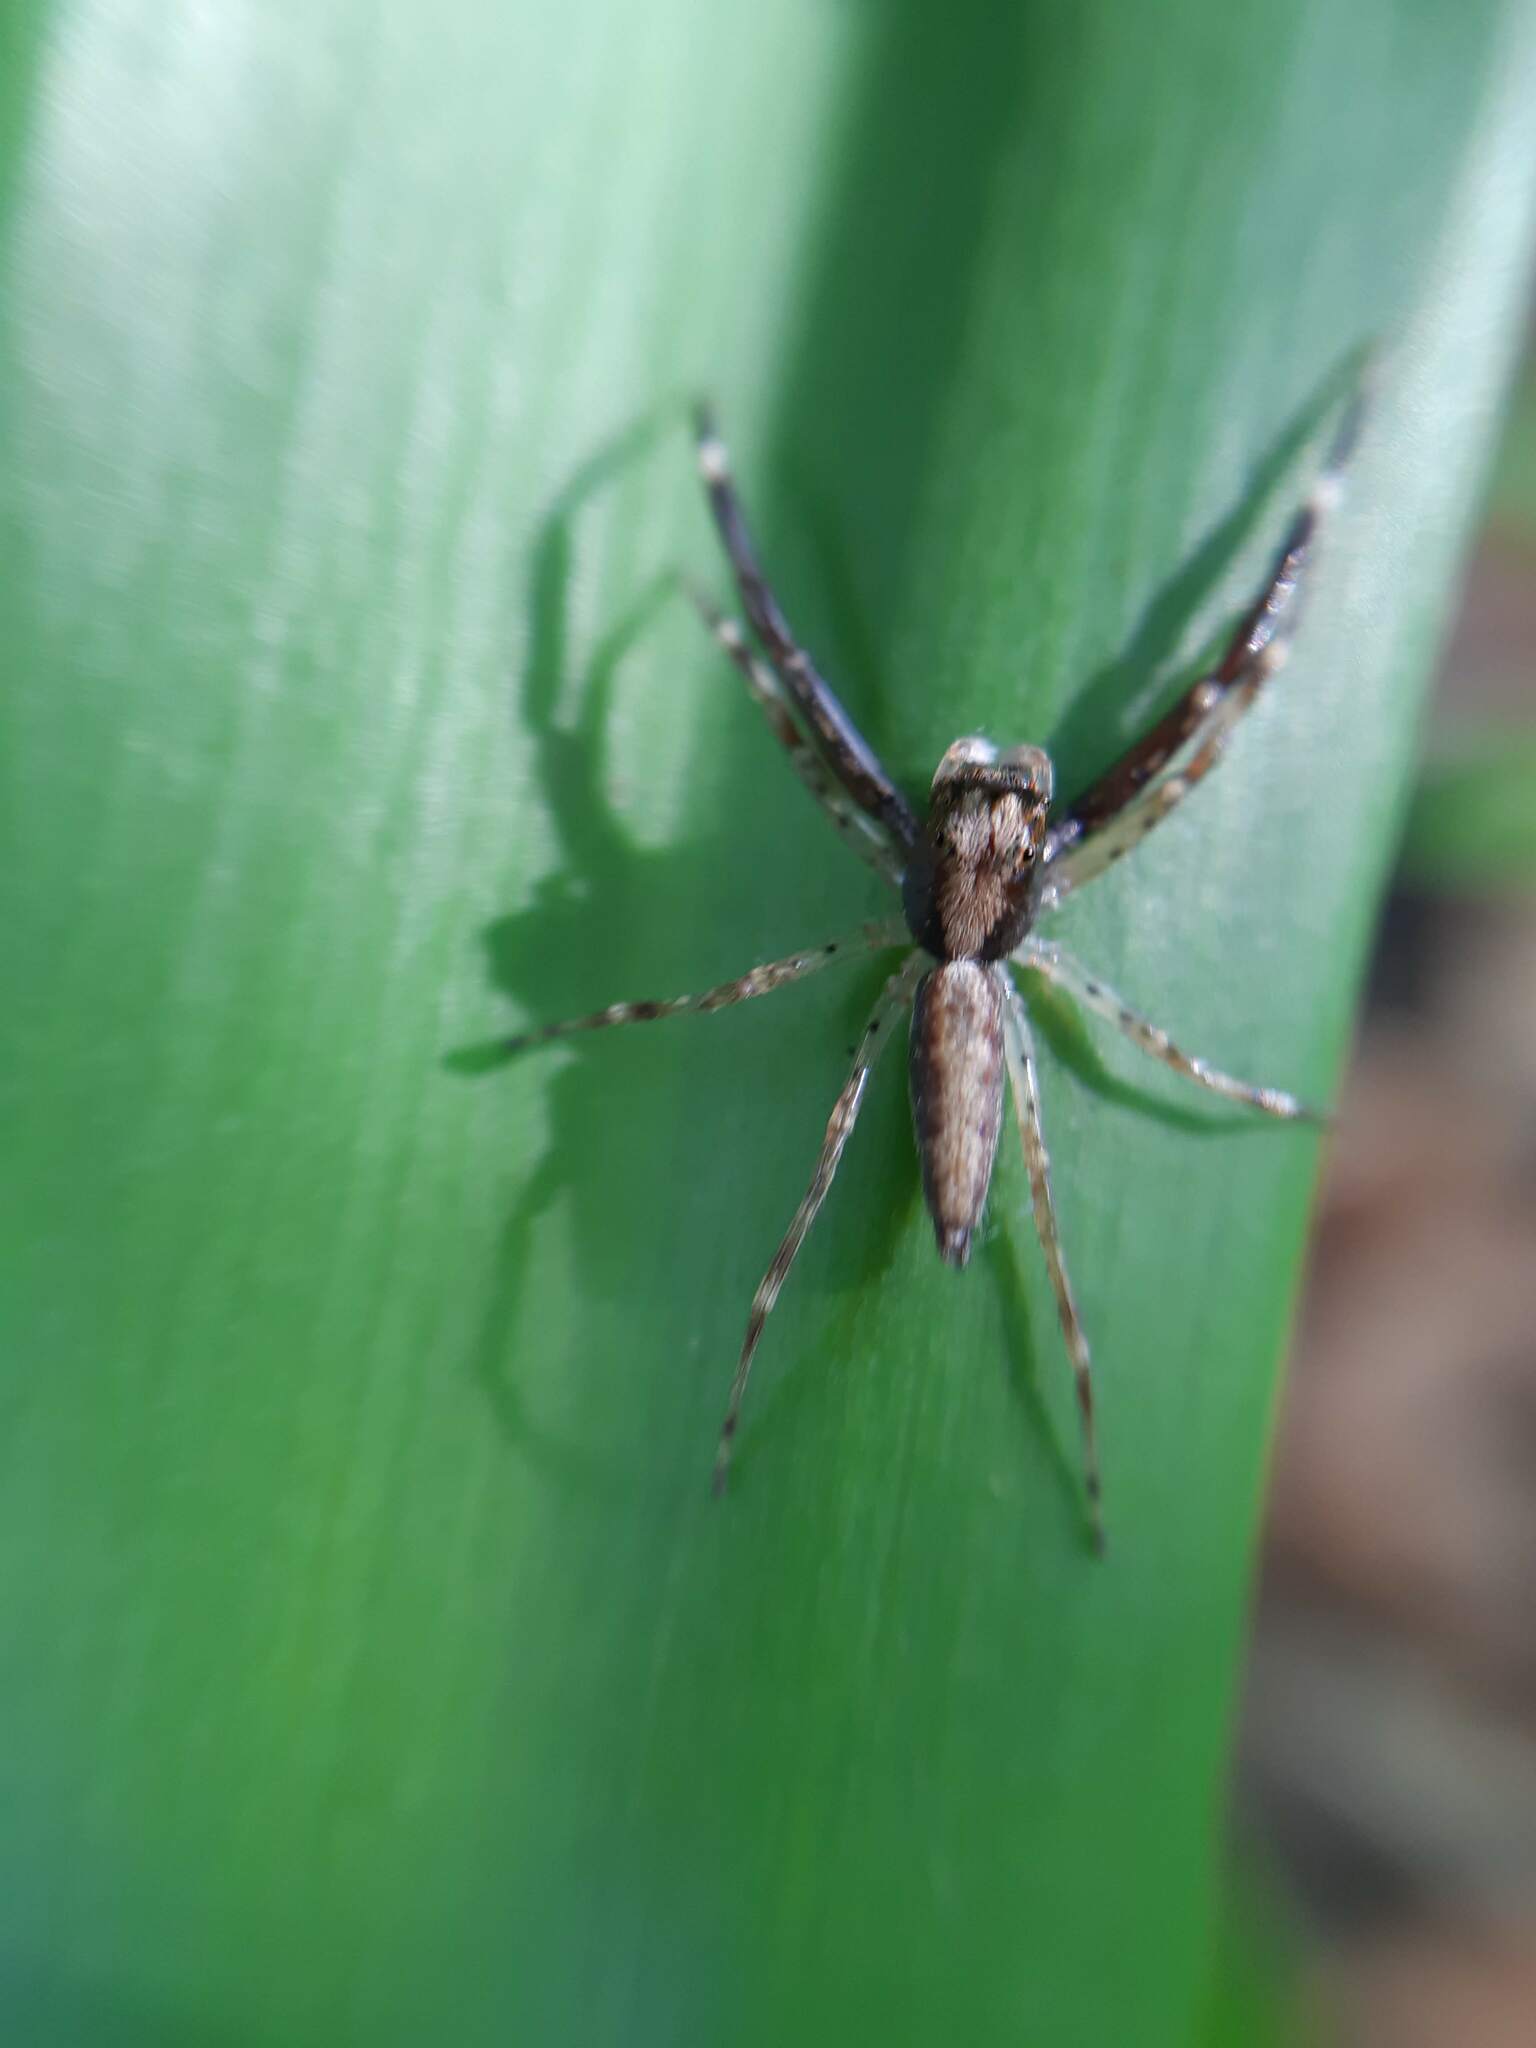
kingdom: Animalia
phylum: Arthropoda
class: Arachnida
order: Araneae
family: Salticidae
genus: Helpis
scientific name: Helpis minitabunda
